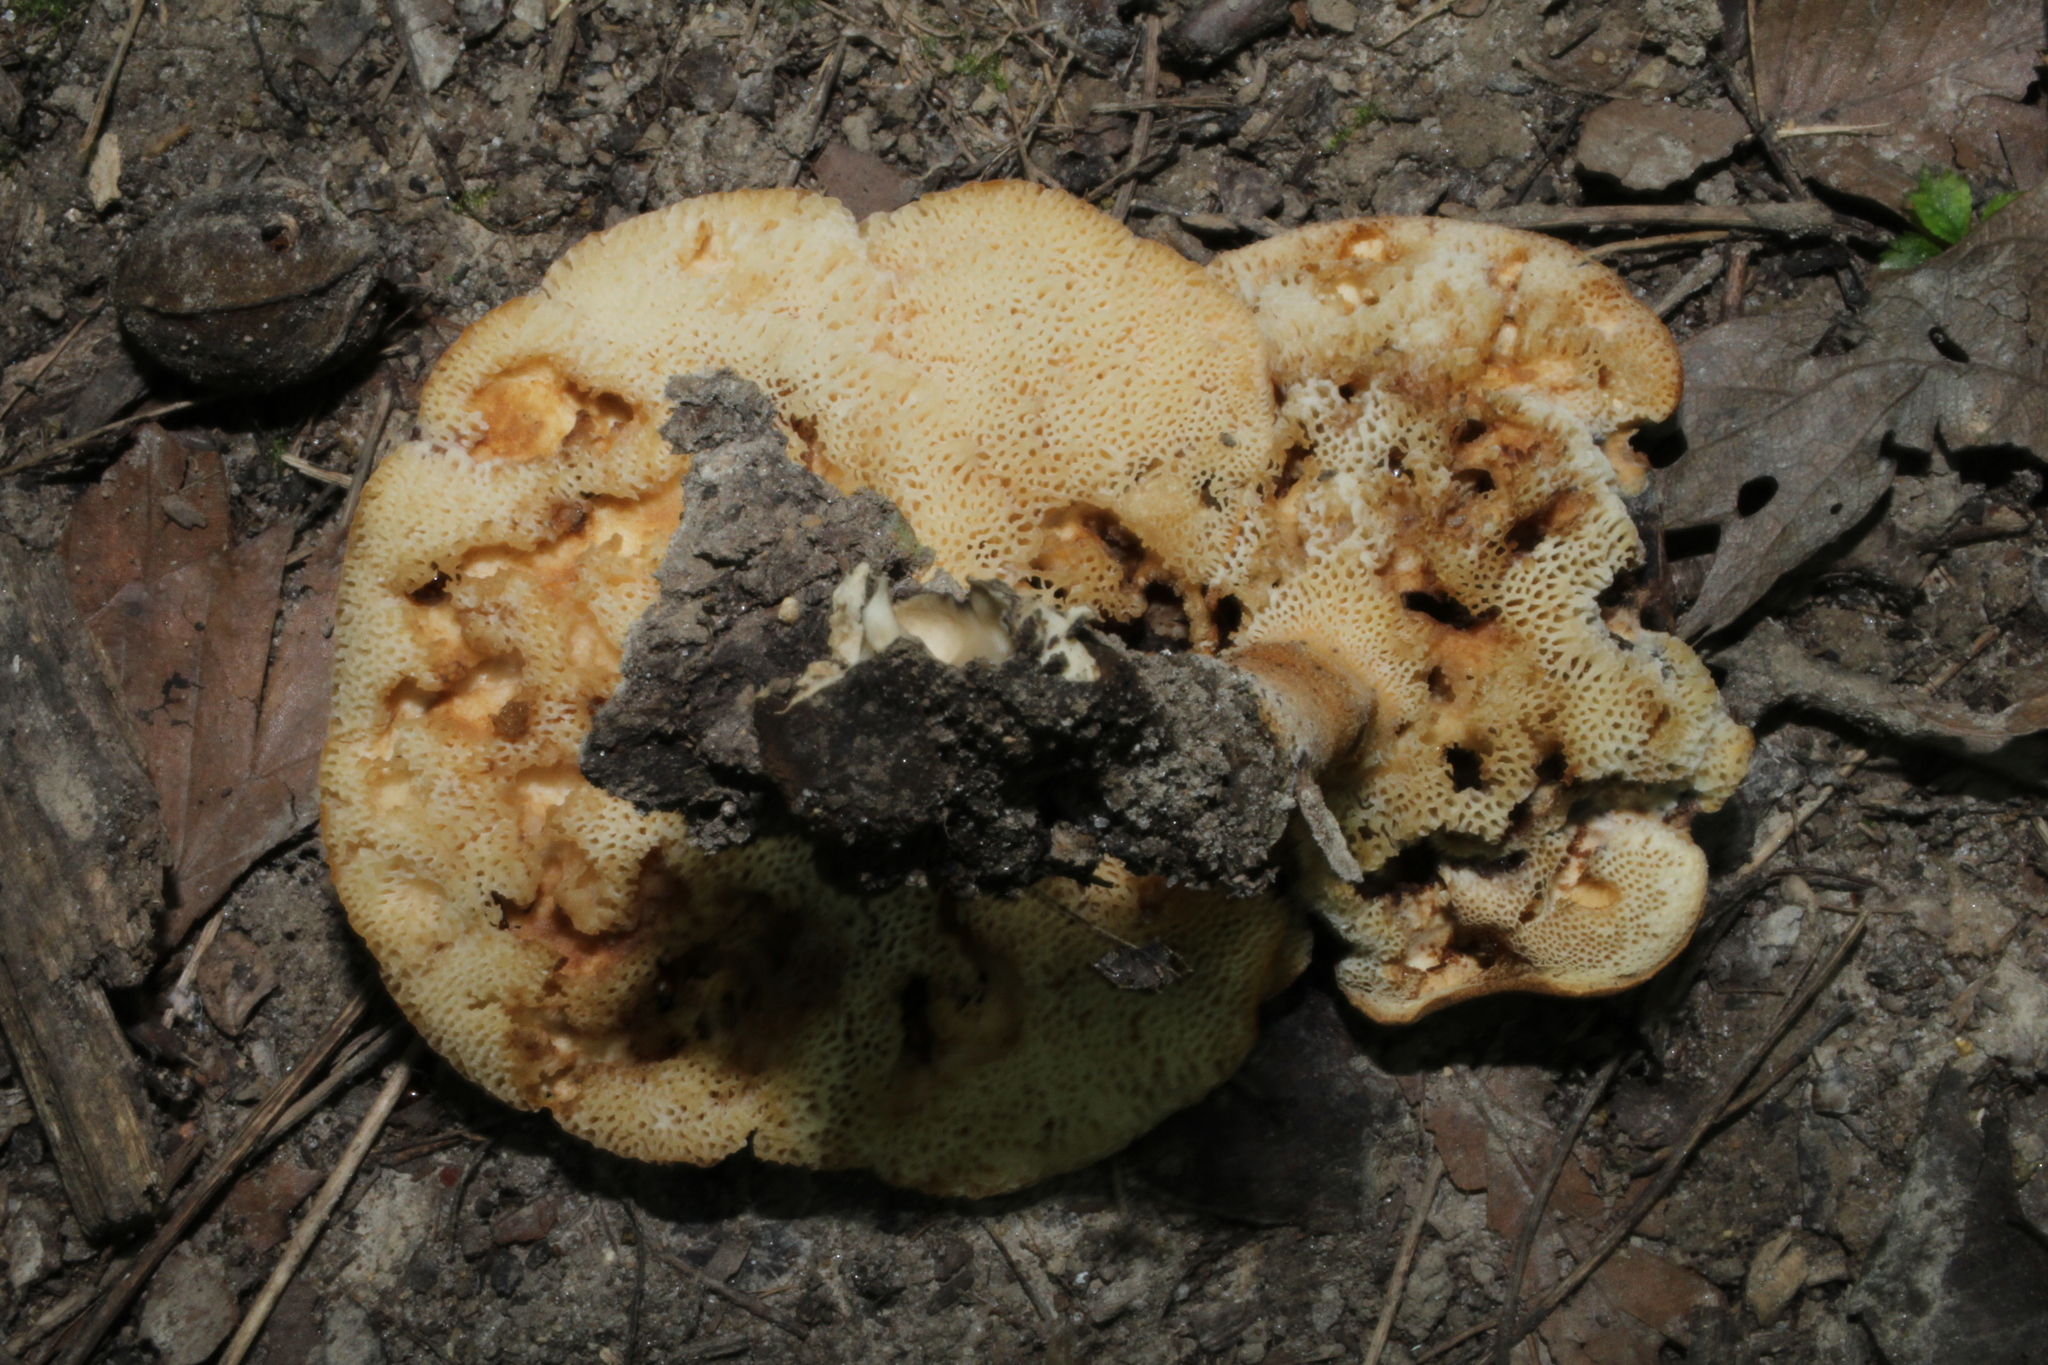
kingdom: Fungi
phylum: Basidiomycota
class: Agaricomycetes
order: Boletales
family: Gyroporaceae
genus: Gyroporus
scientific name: Gyroporus castaneus
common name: Chestnut bolete
